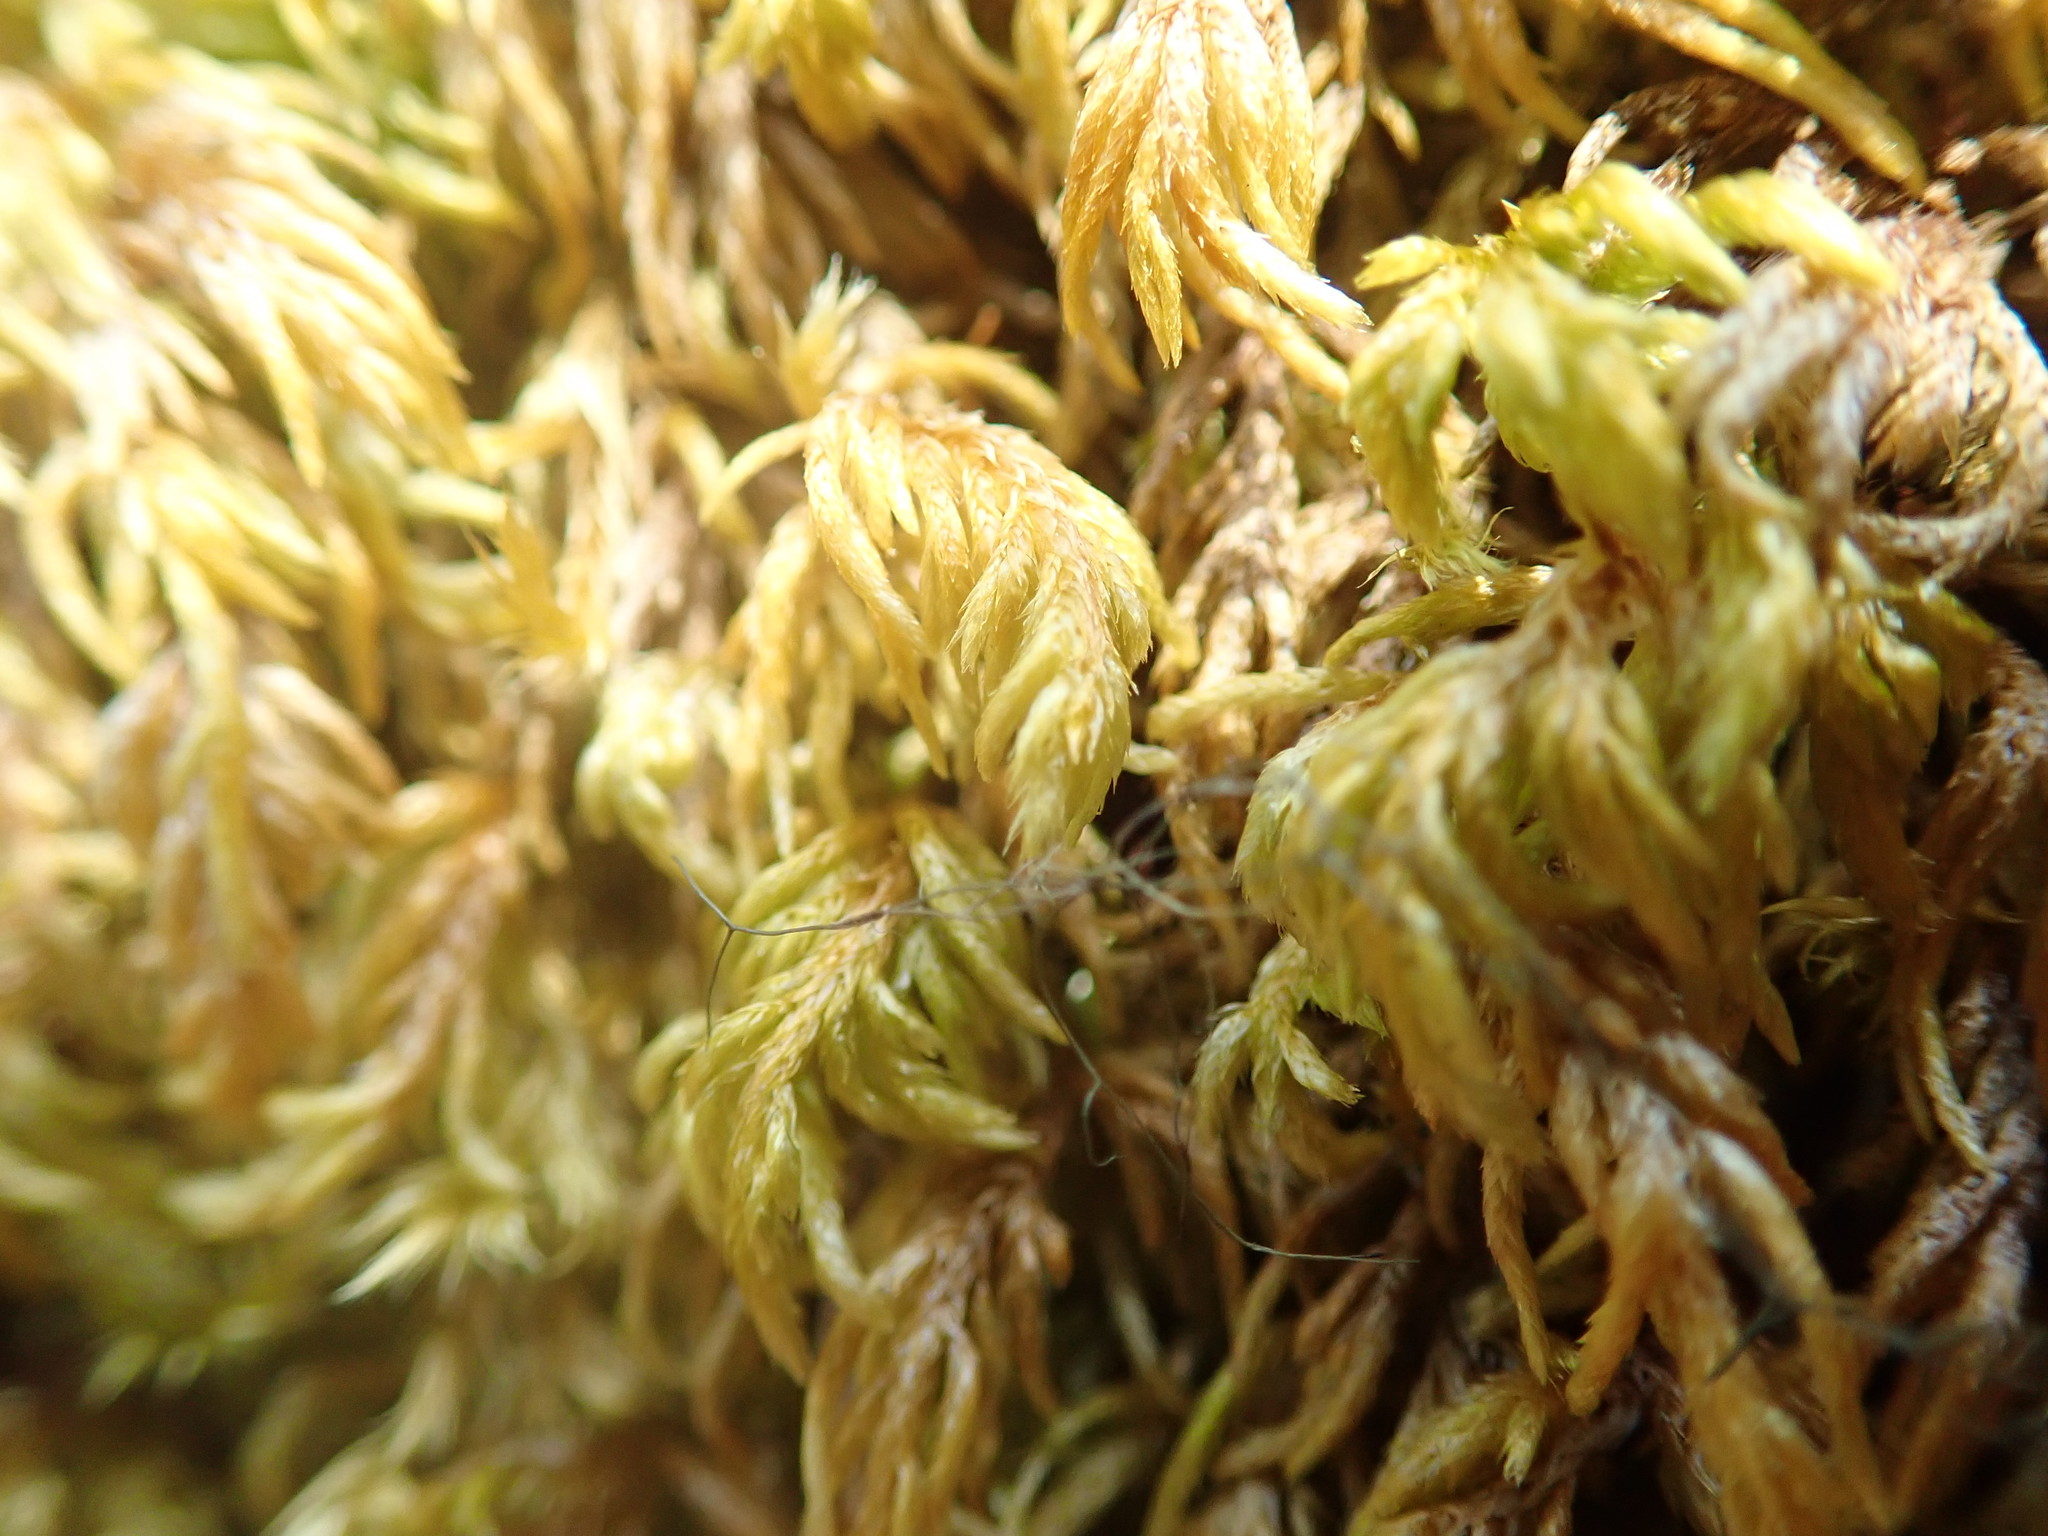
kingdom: Plantae
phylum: Bryophyta
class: Bryopsida
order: Hypnales
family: Lembophyllaceae
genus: Pseudisothecium
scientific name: Pseudisothecium cristatum
